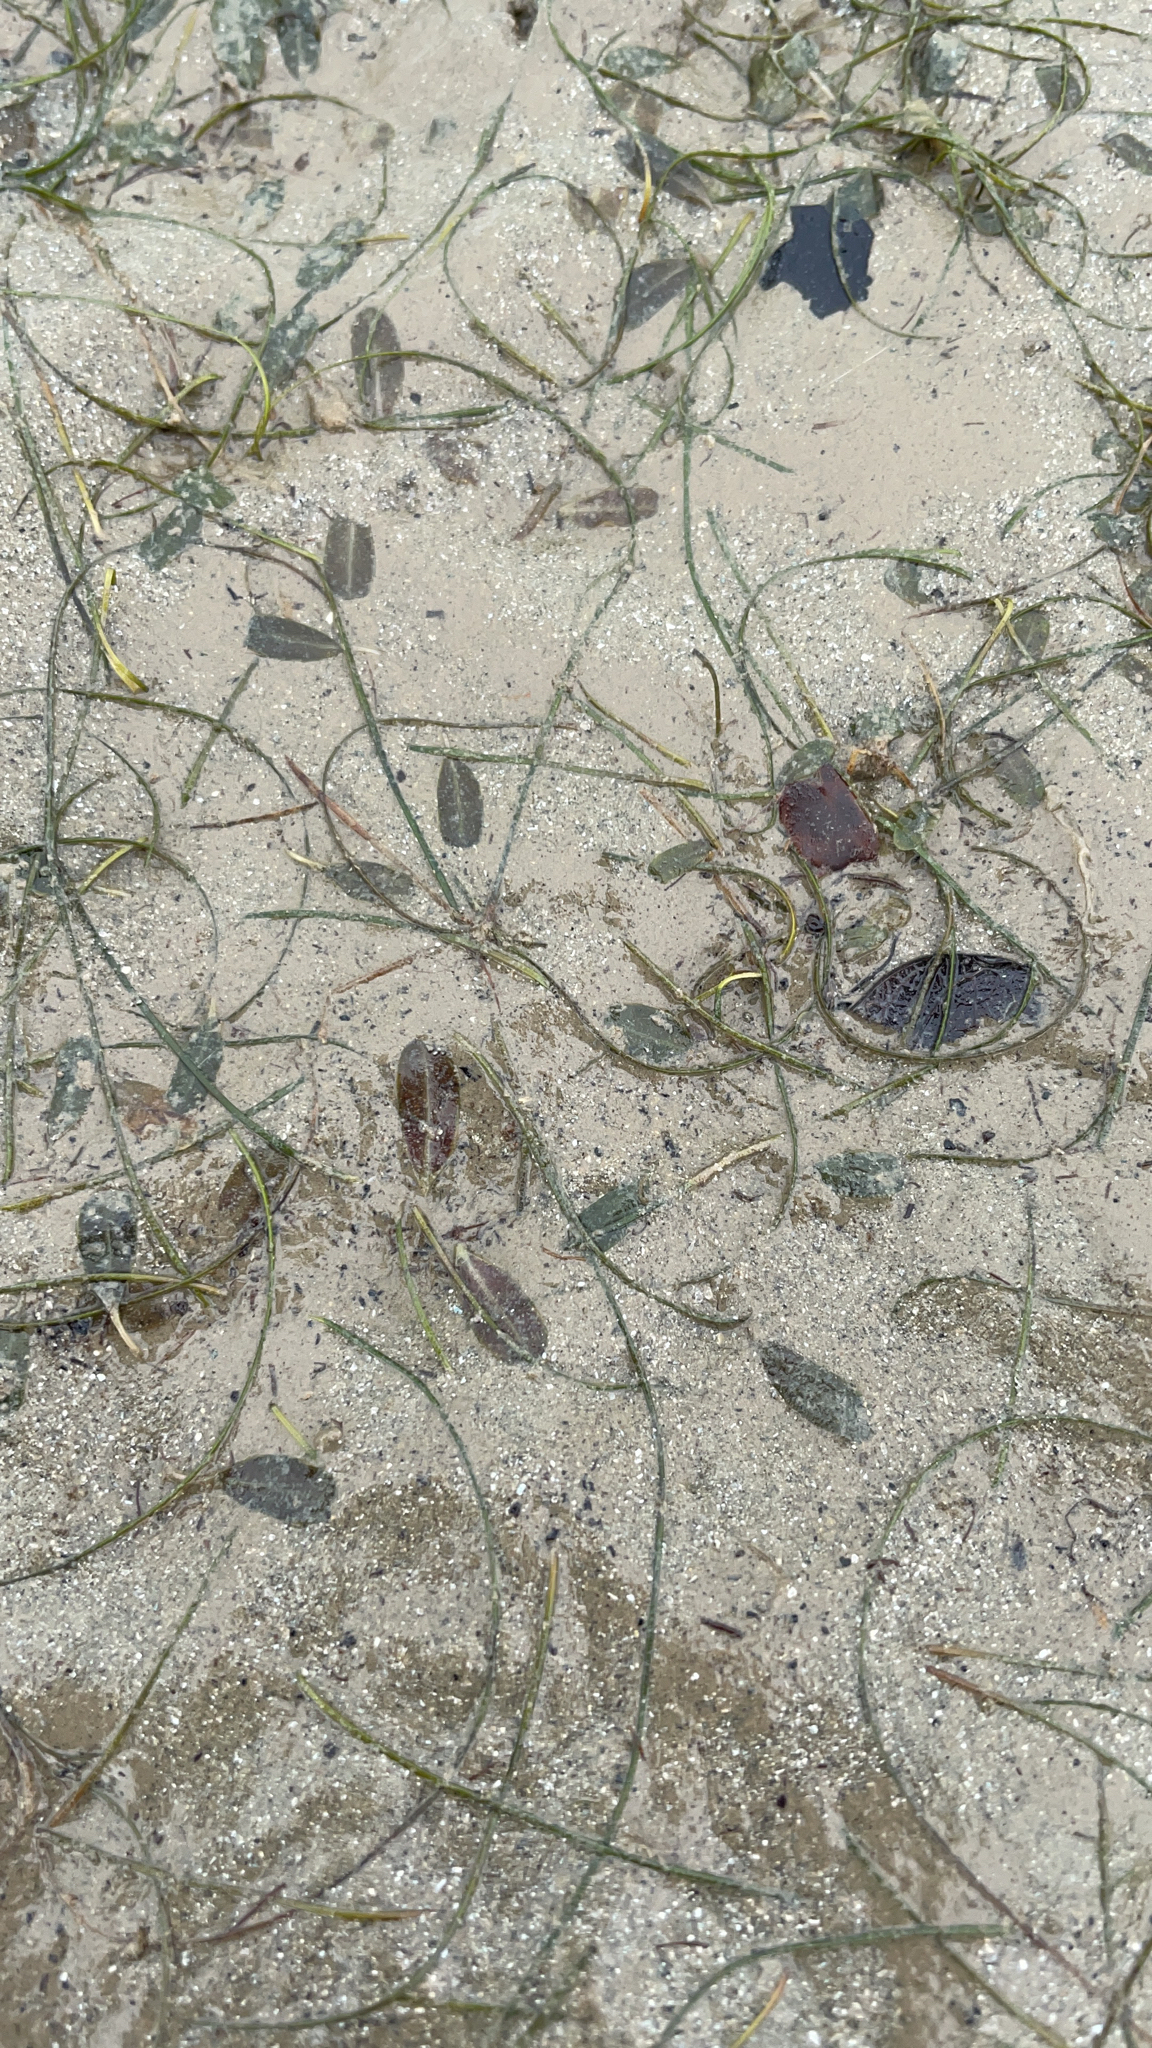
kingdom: Plantae
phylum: Tracheophyta
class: Liliopsida
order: Alismatales
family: Hydrocharitaceae
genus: Halophila
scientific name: Halophila ovalis
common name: Species code: ho
